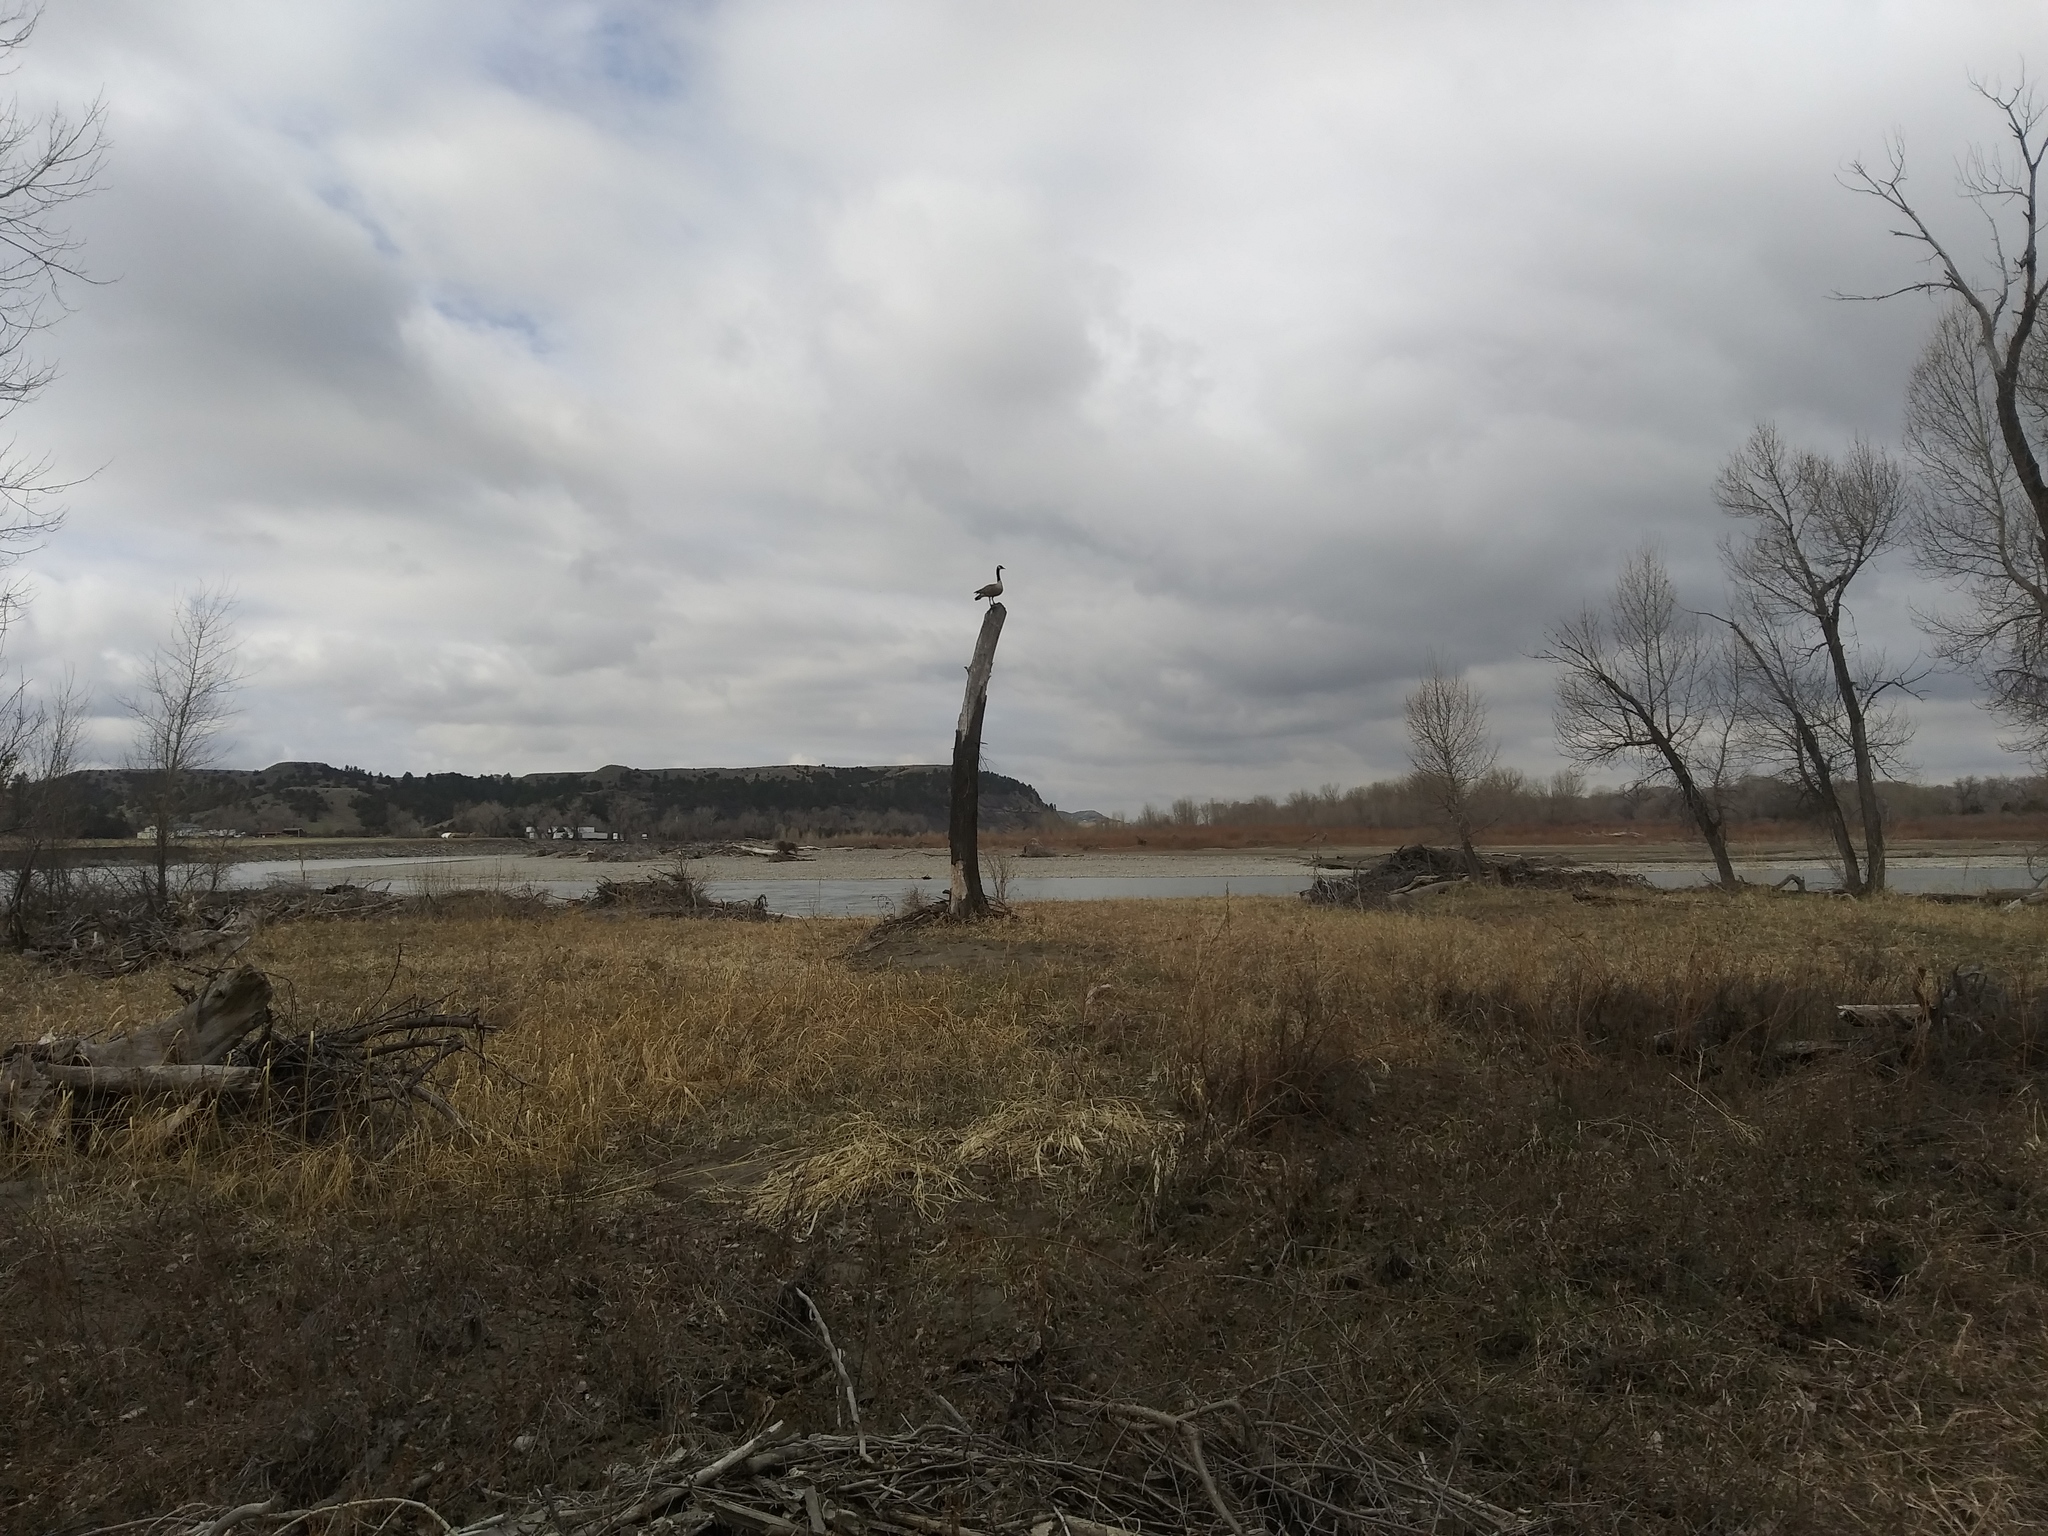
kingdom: Animalia
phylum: Chordata
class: Aves
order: Anseriformes
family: Anatidae
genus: Branta
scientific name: Branta canadensis
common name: Canada goose
